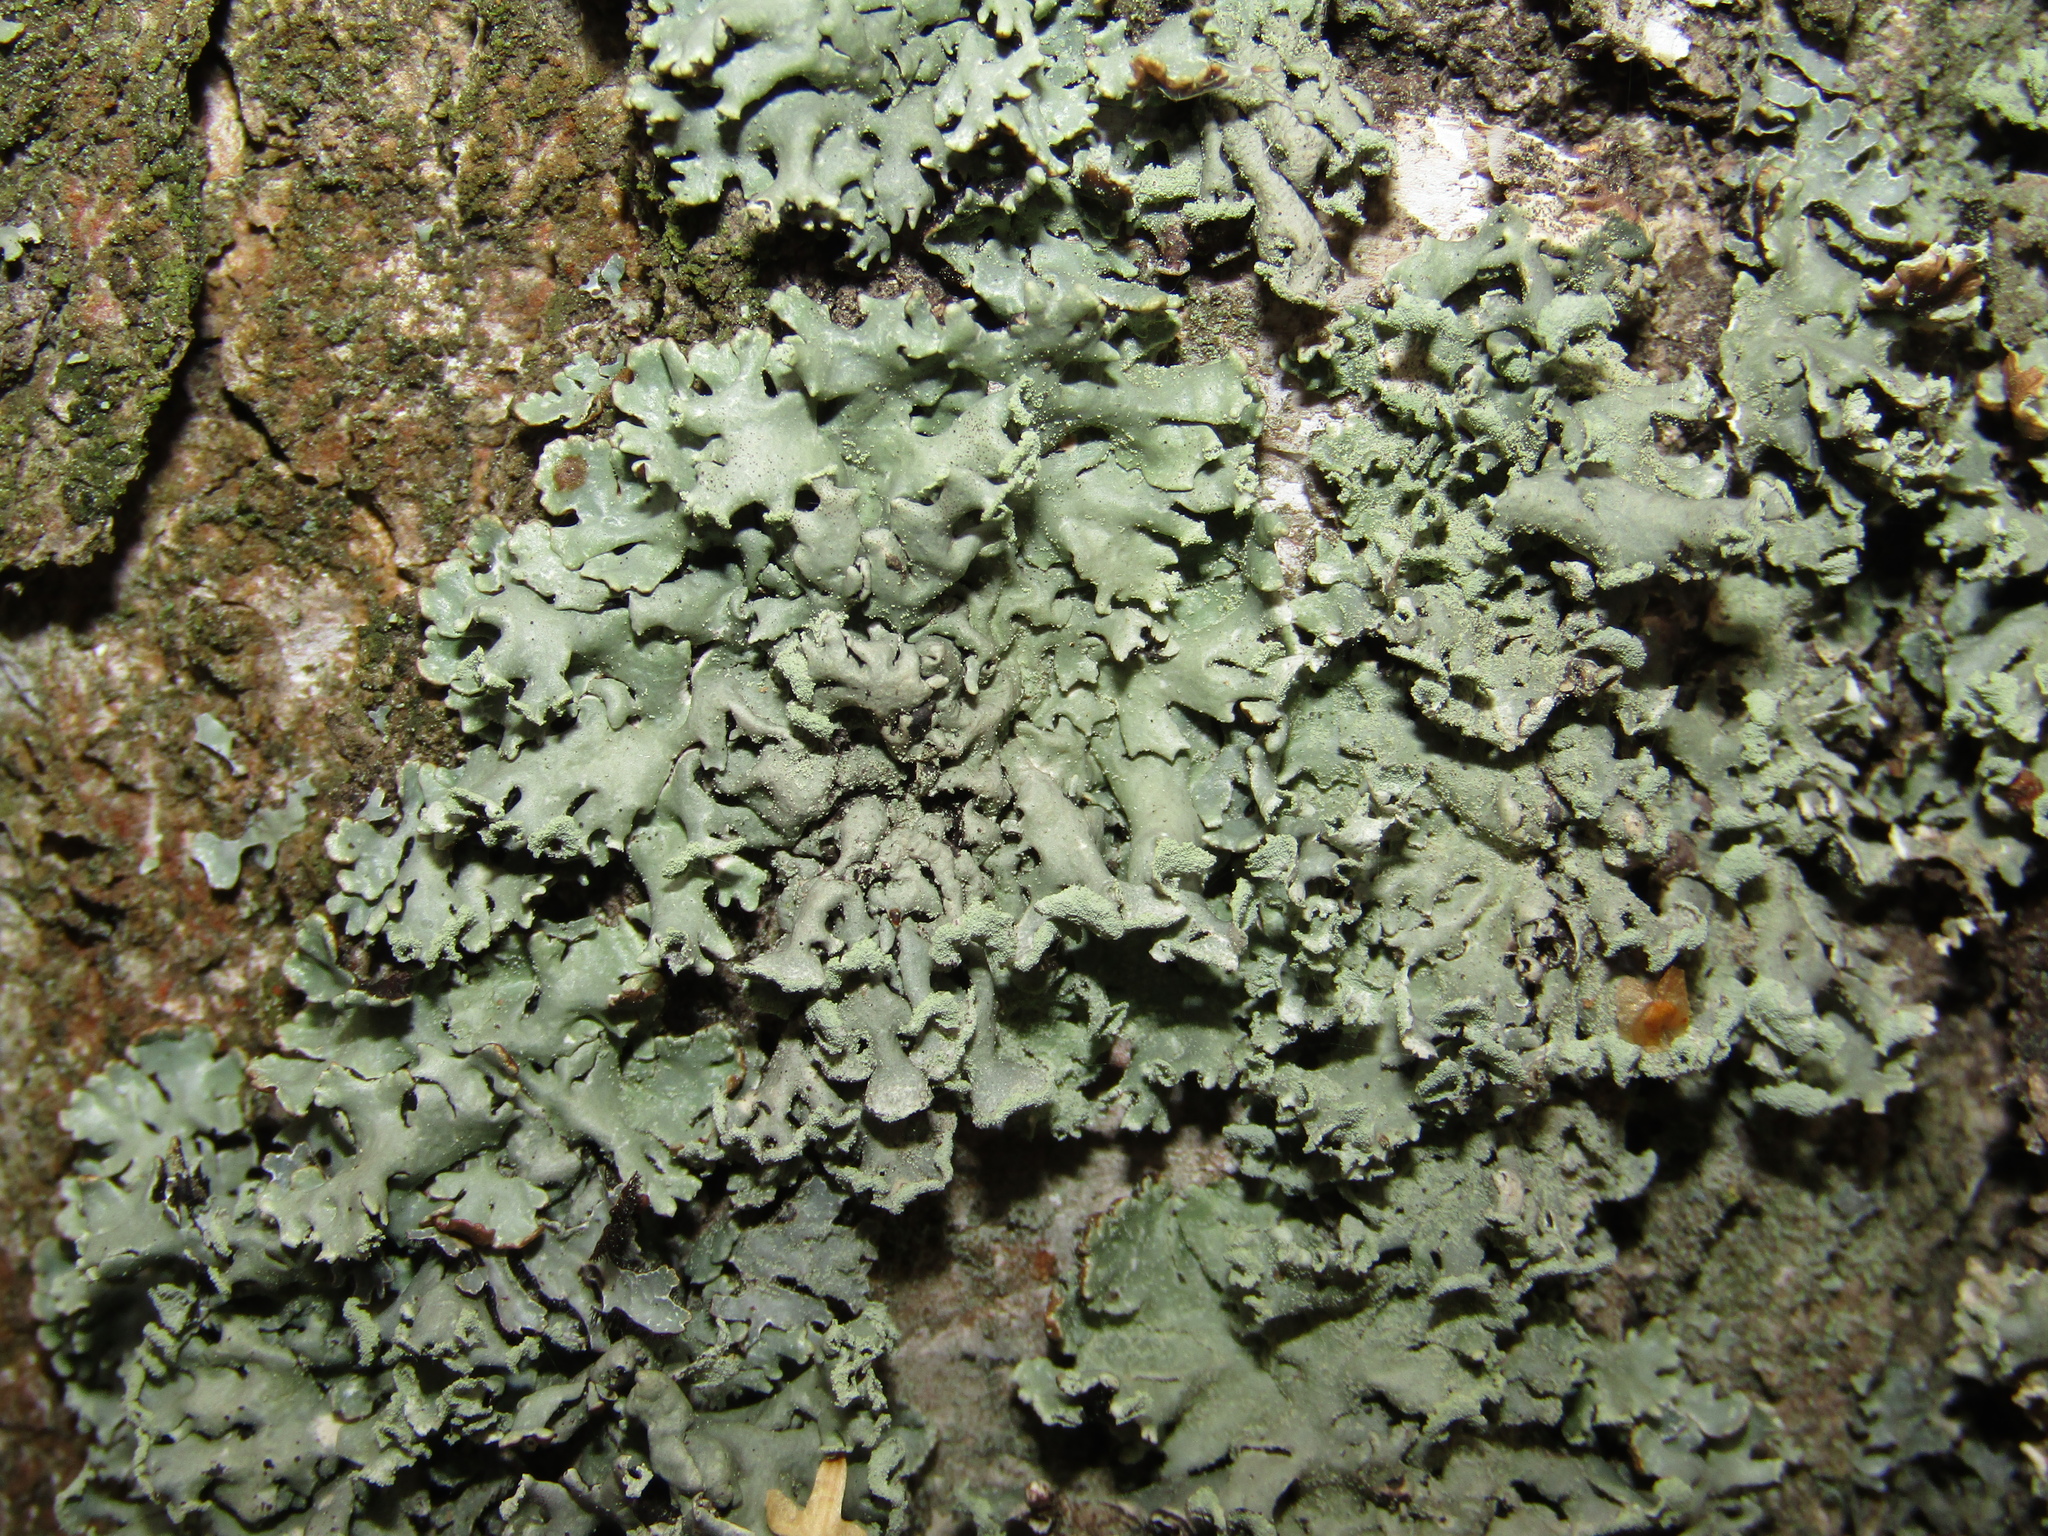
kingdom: Fungi
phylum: Ascomycota
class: Lecanoromycetes
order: Lecanorales
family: Parmeliaceae
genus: Hypogymnia
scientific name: Hypogymnia physodes
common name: Dark crottle
